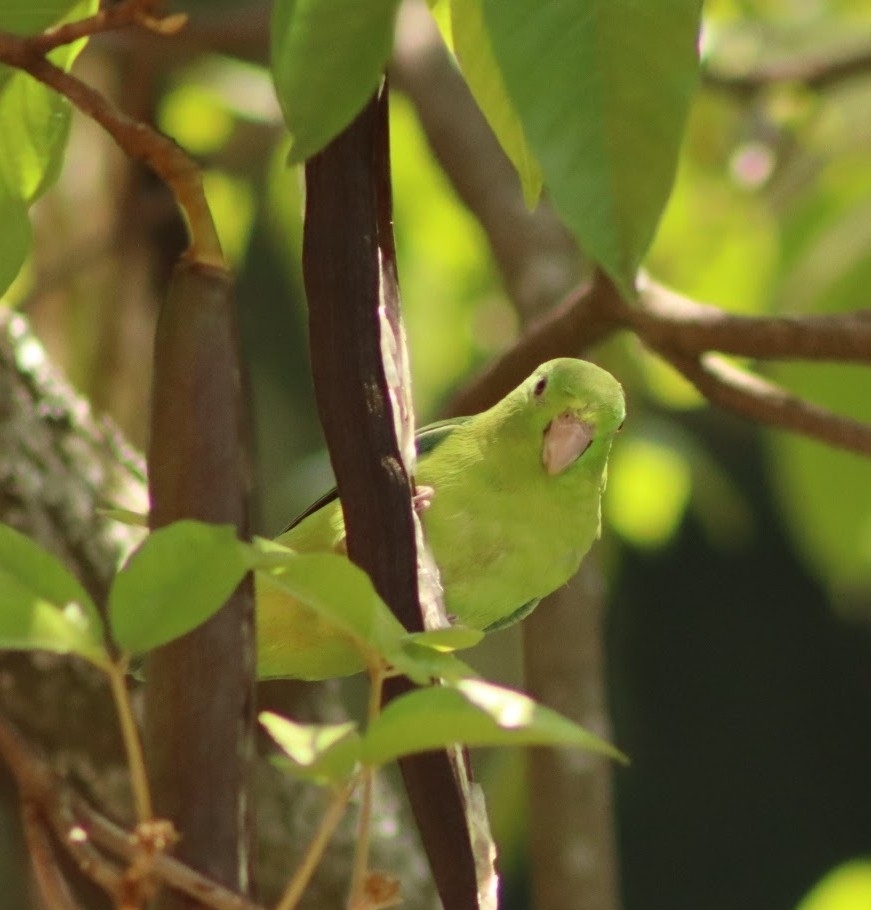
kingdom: Animalia
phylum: Chordata
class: Aves
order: Psittaciformes
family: Psittacidae
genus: Forpus
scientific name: Forpus conspicillatus
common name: Spectacled parrotlet
